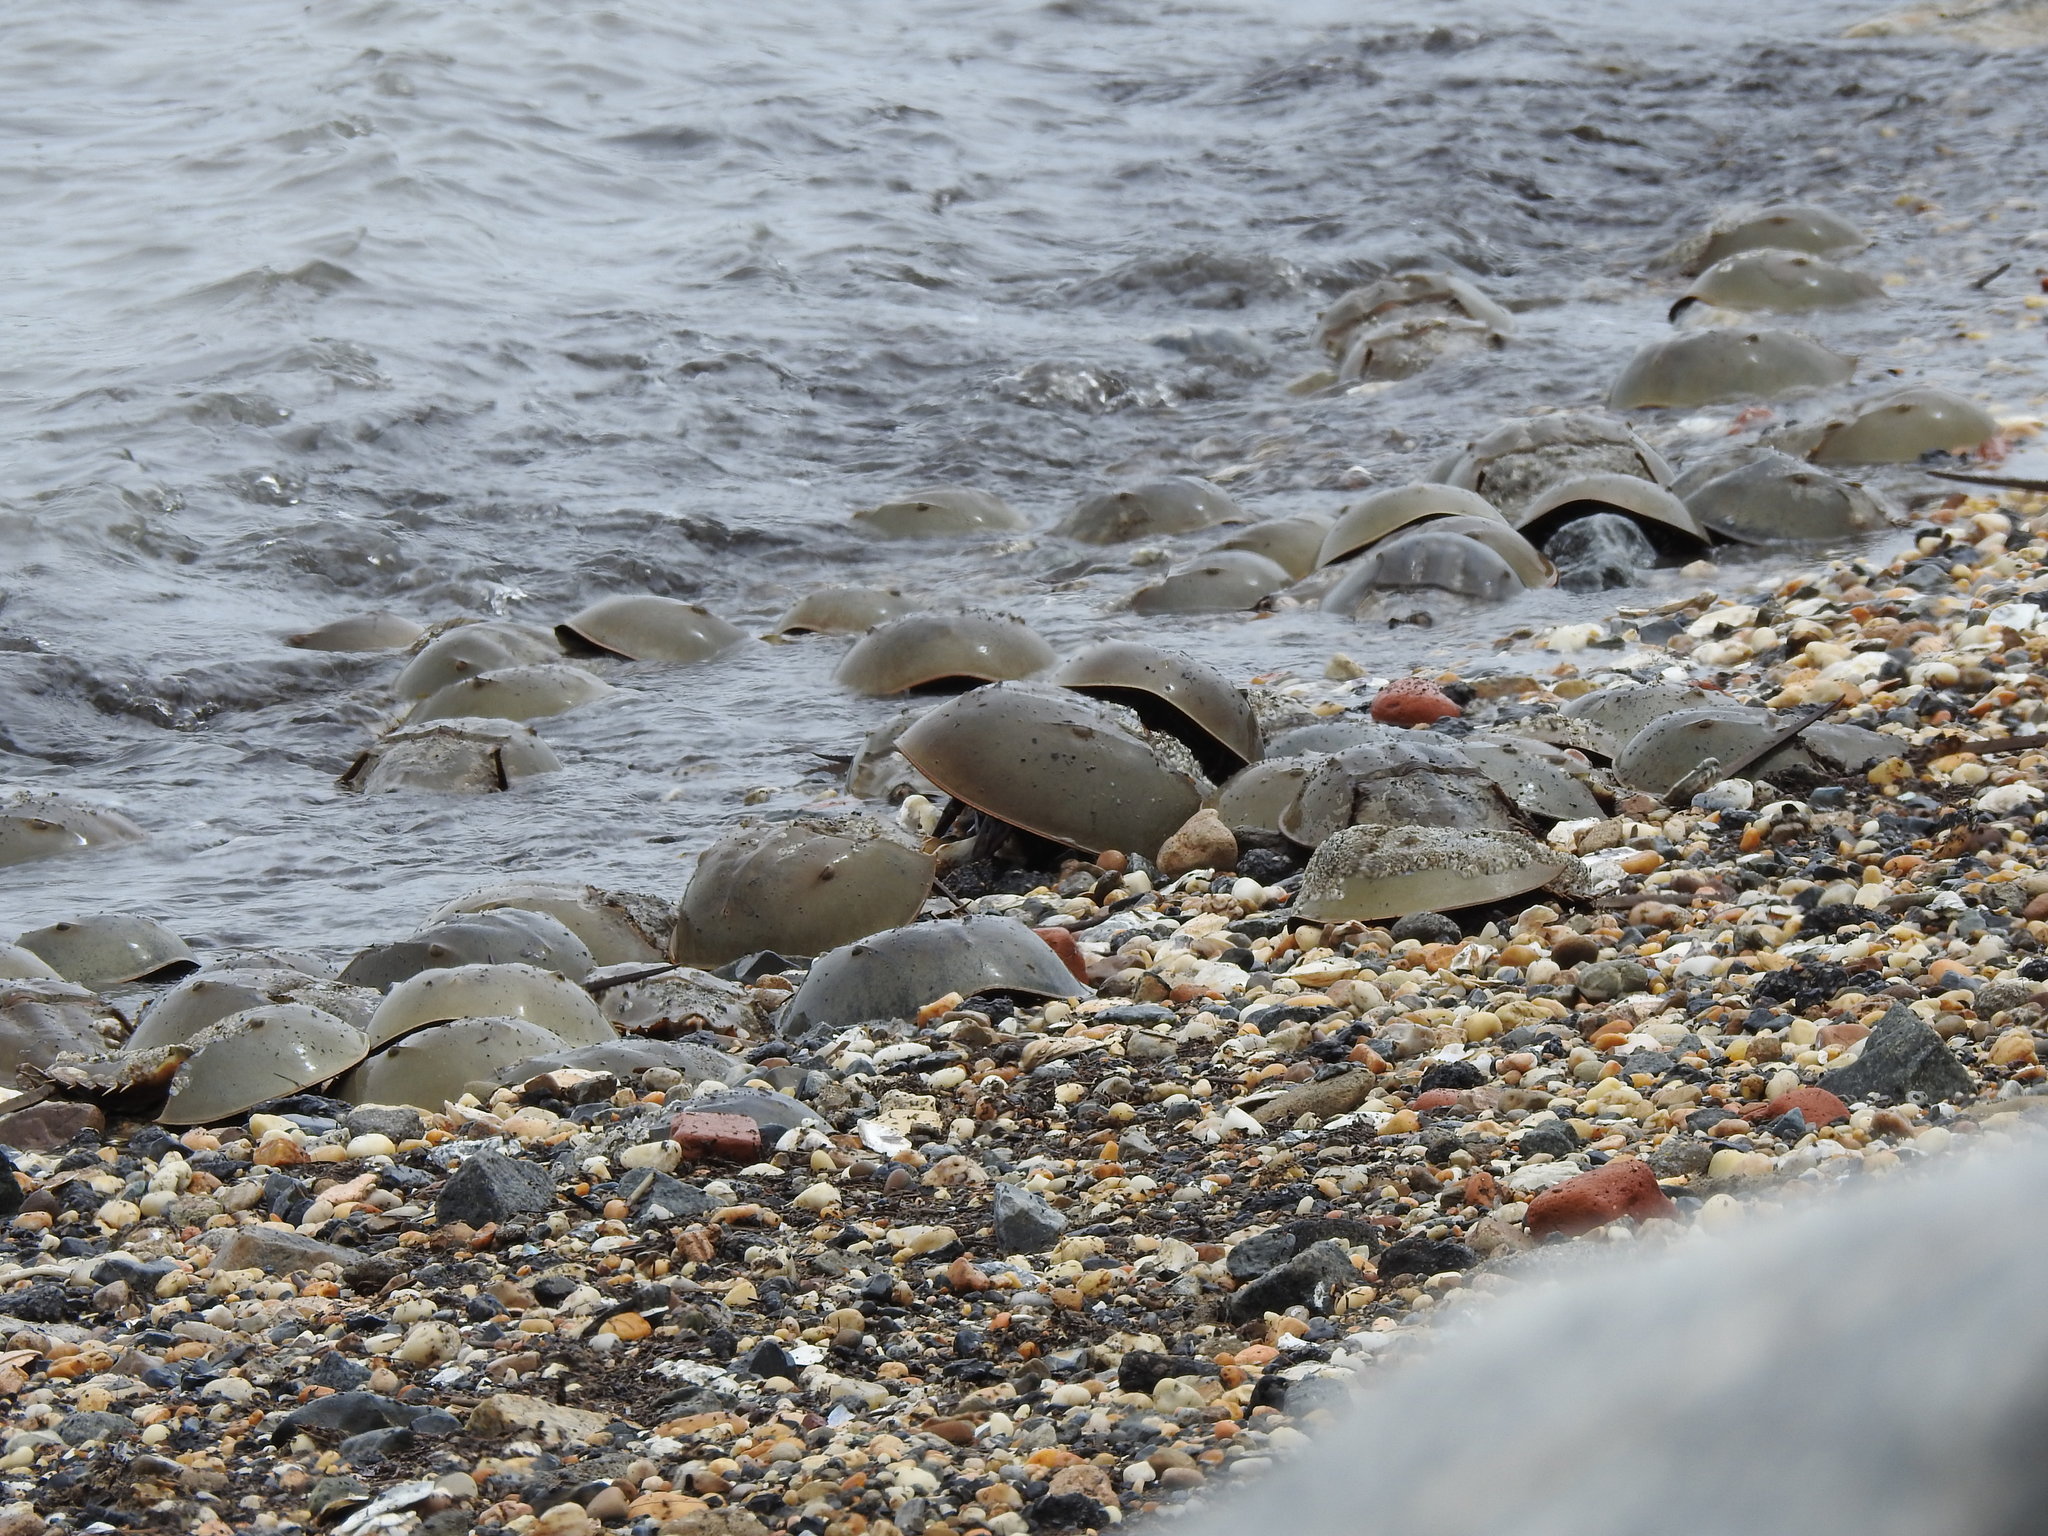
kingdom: Animalia
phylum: Arthropoda
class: Merostomata
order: Xiphosurida
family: Limulidae
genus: Limulus
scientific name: Limulus polyphemus
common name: Horseshoe crab
